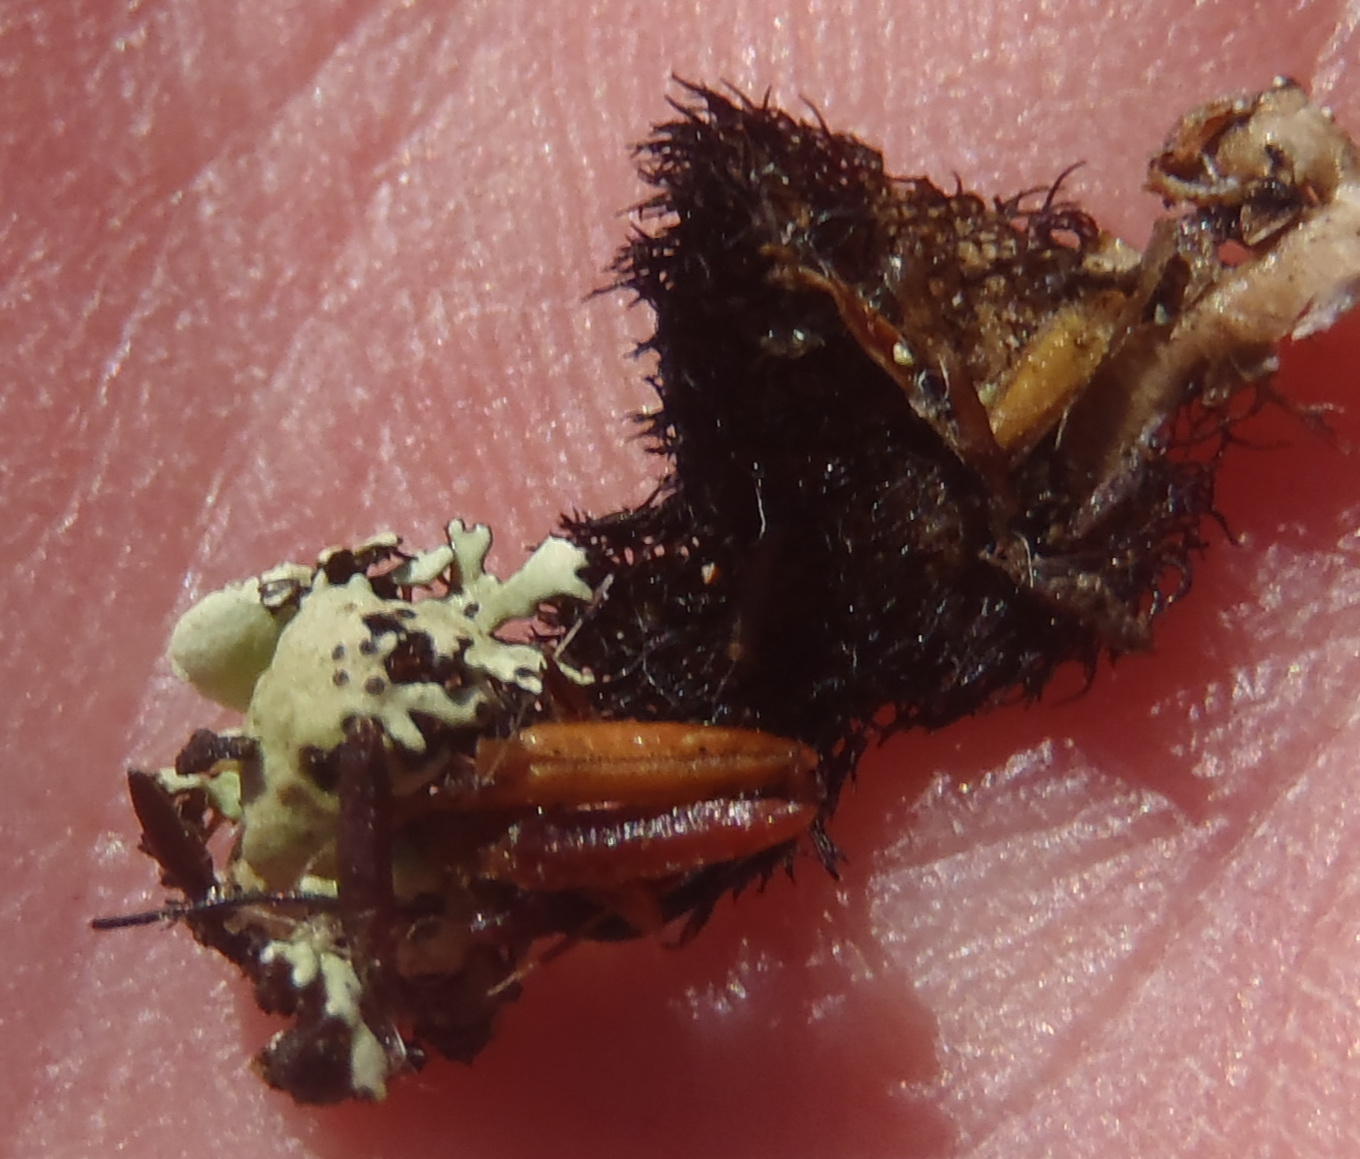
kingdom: Fungi
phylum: Ascomycota
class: Lecanoromycetes
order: Lecanorales
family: Parmeliaceae
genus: Xanthoparmelia
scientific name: Xanthoparmelia hottentotta
